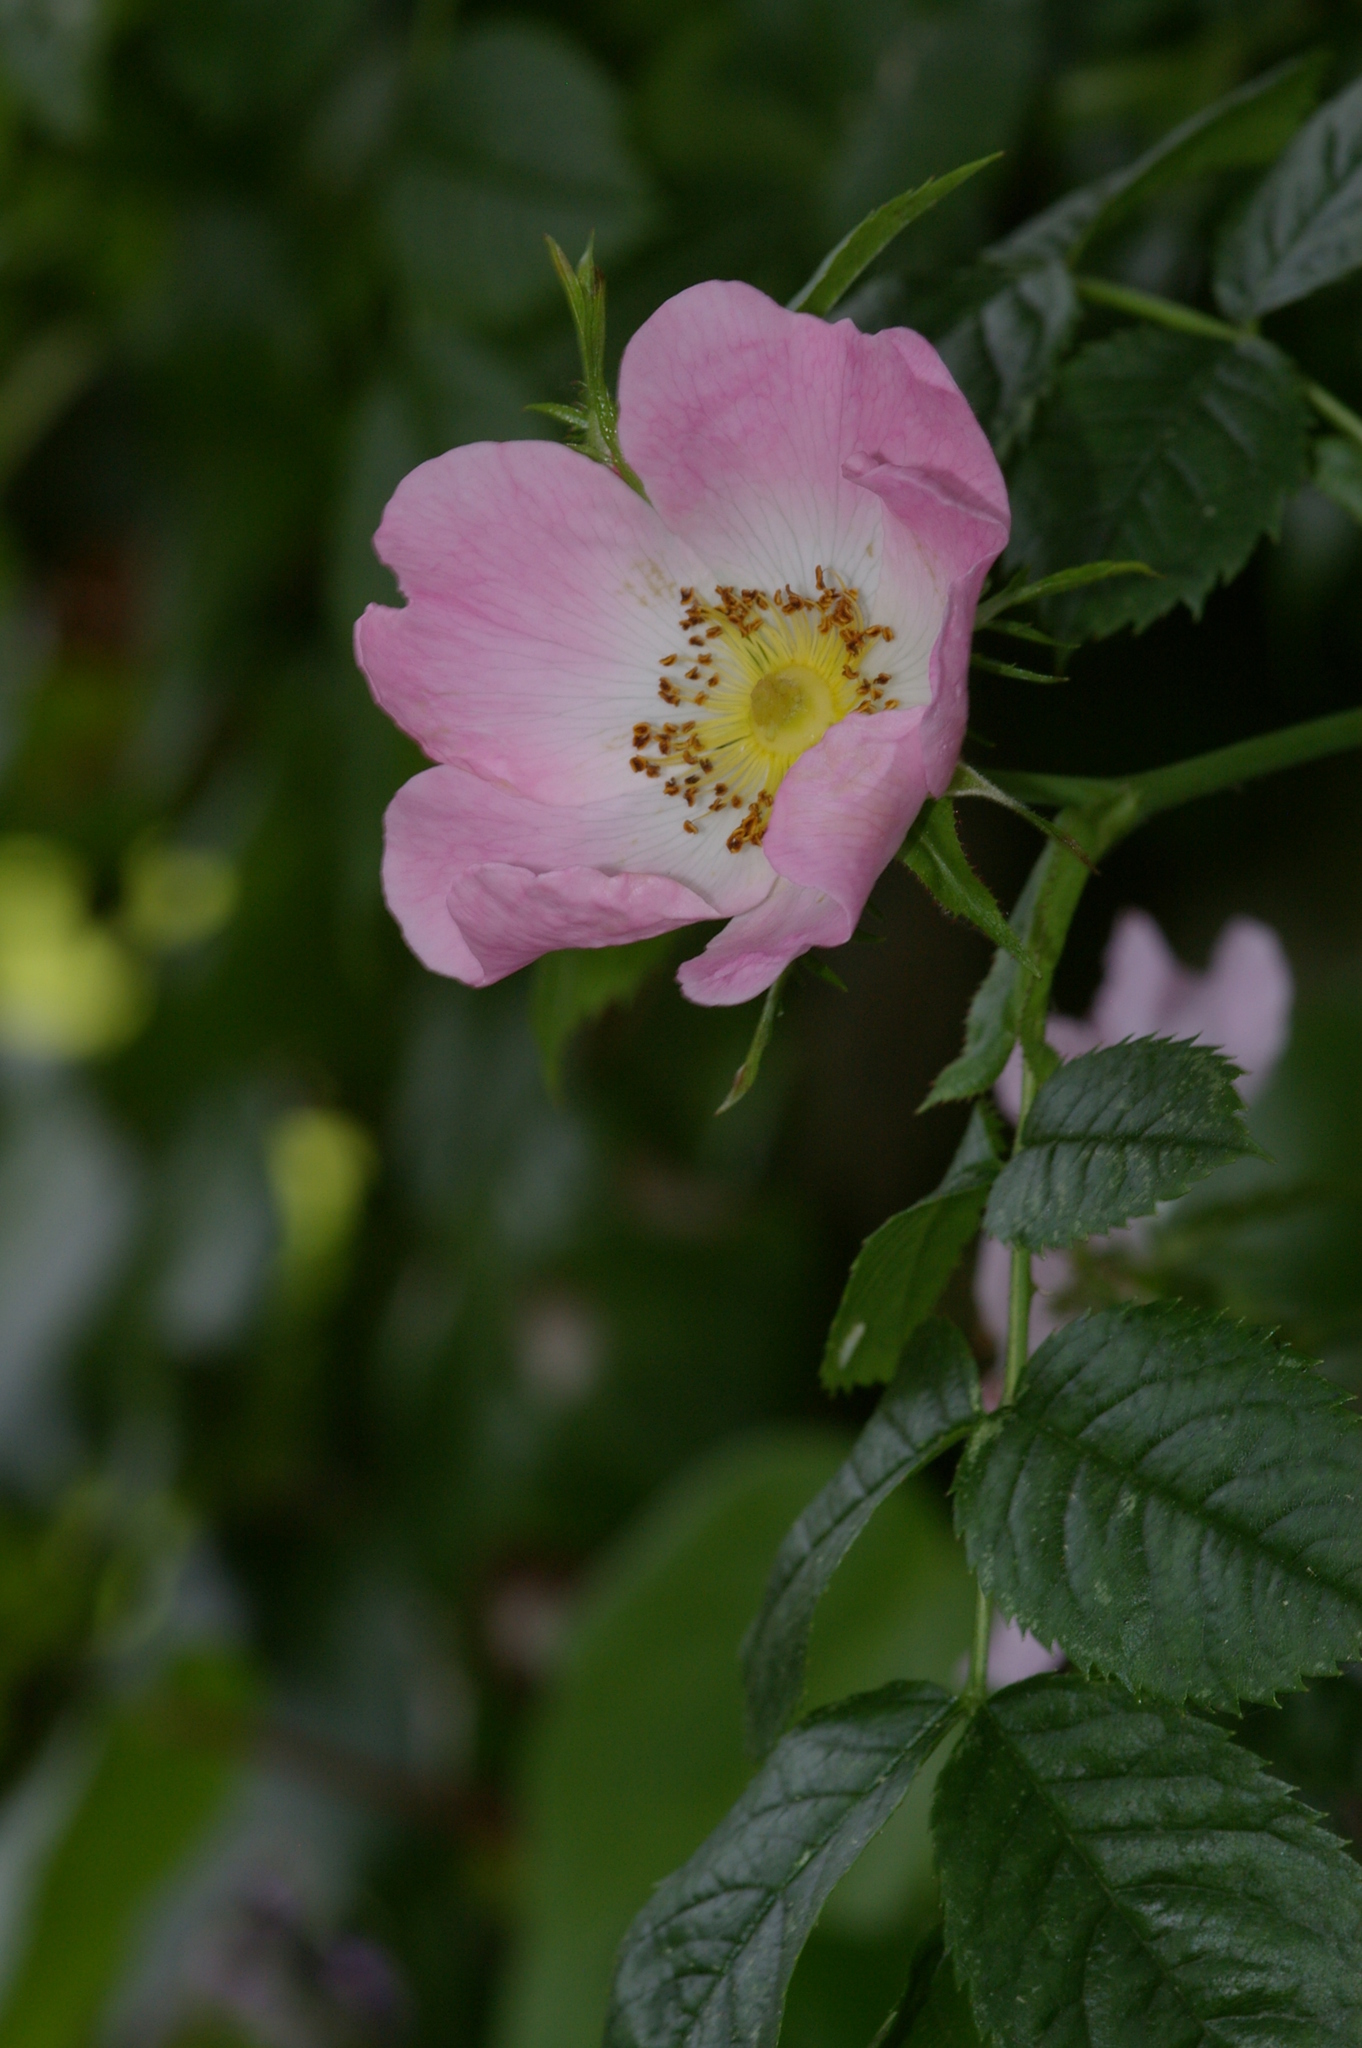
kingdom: Plantae
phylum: Tracheophyta
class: Magnoliopsida
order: Rosales
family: Rosaceae
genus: Rosa
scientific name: Rosa canina
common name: Dog rose
